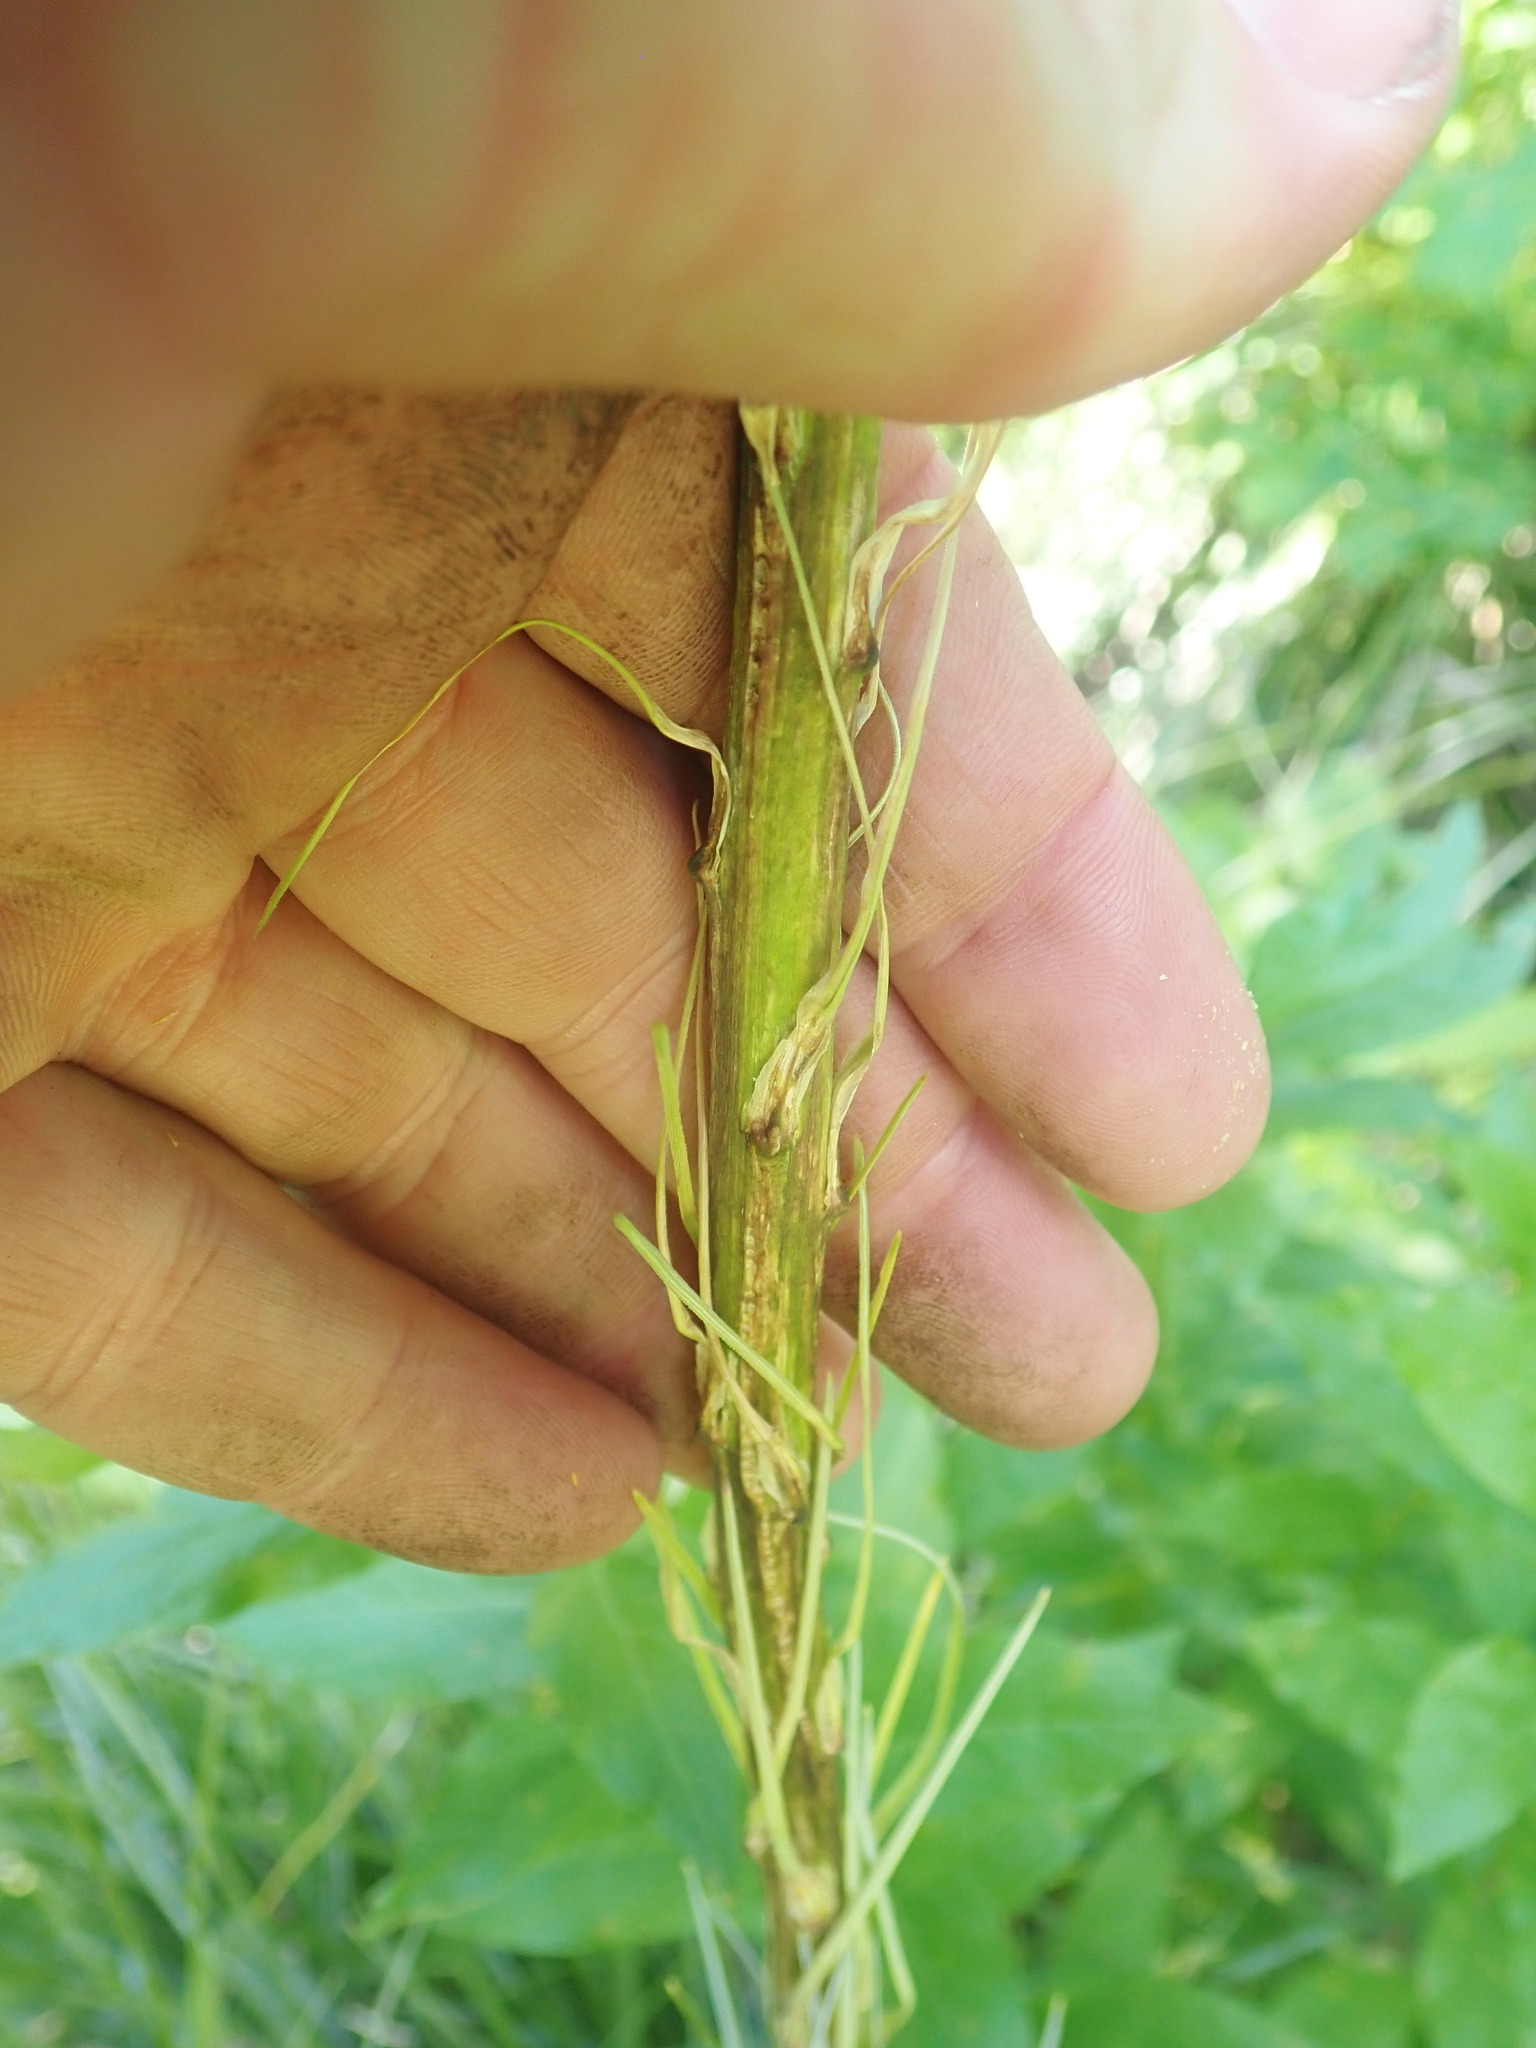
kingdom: Plantae
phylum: Tracheophyta
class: Liliopsida
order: Liliales
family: Melanthiaceae
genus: Xerophyllum
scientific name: Xerophyllum tenax
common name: Bear-grass
